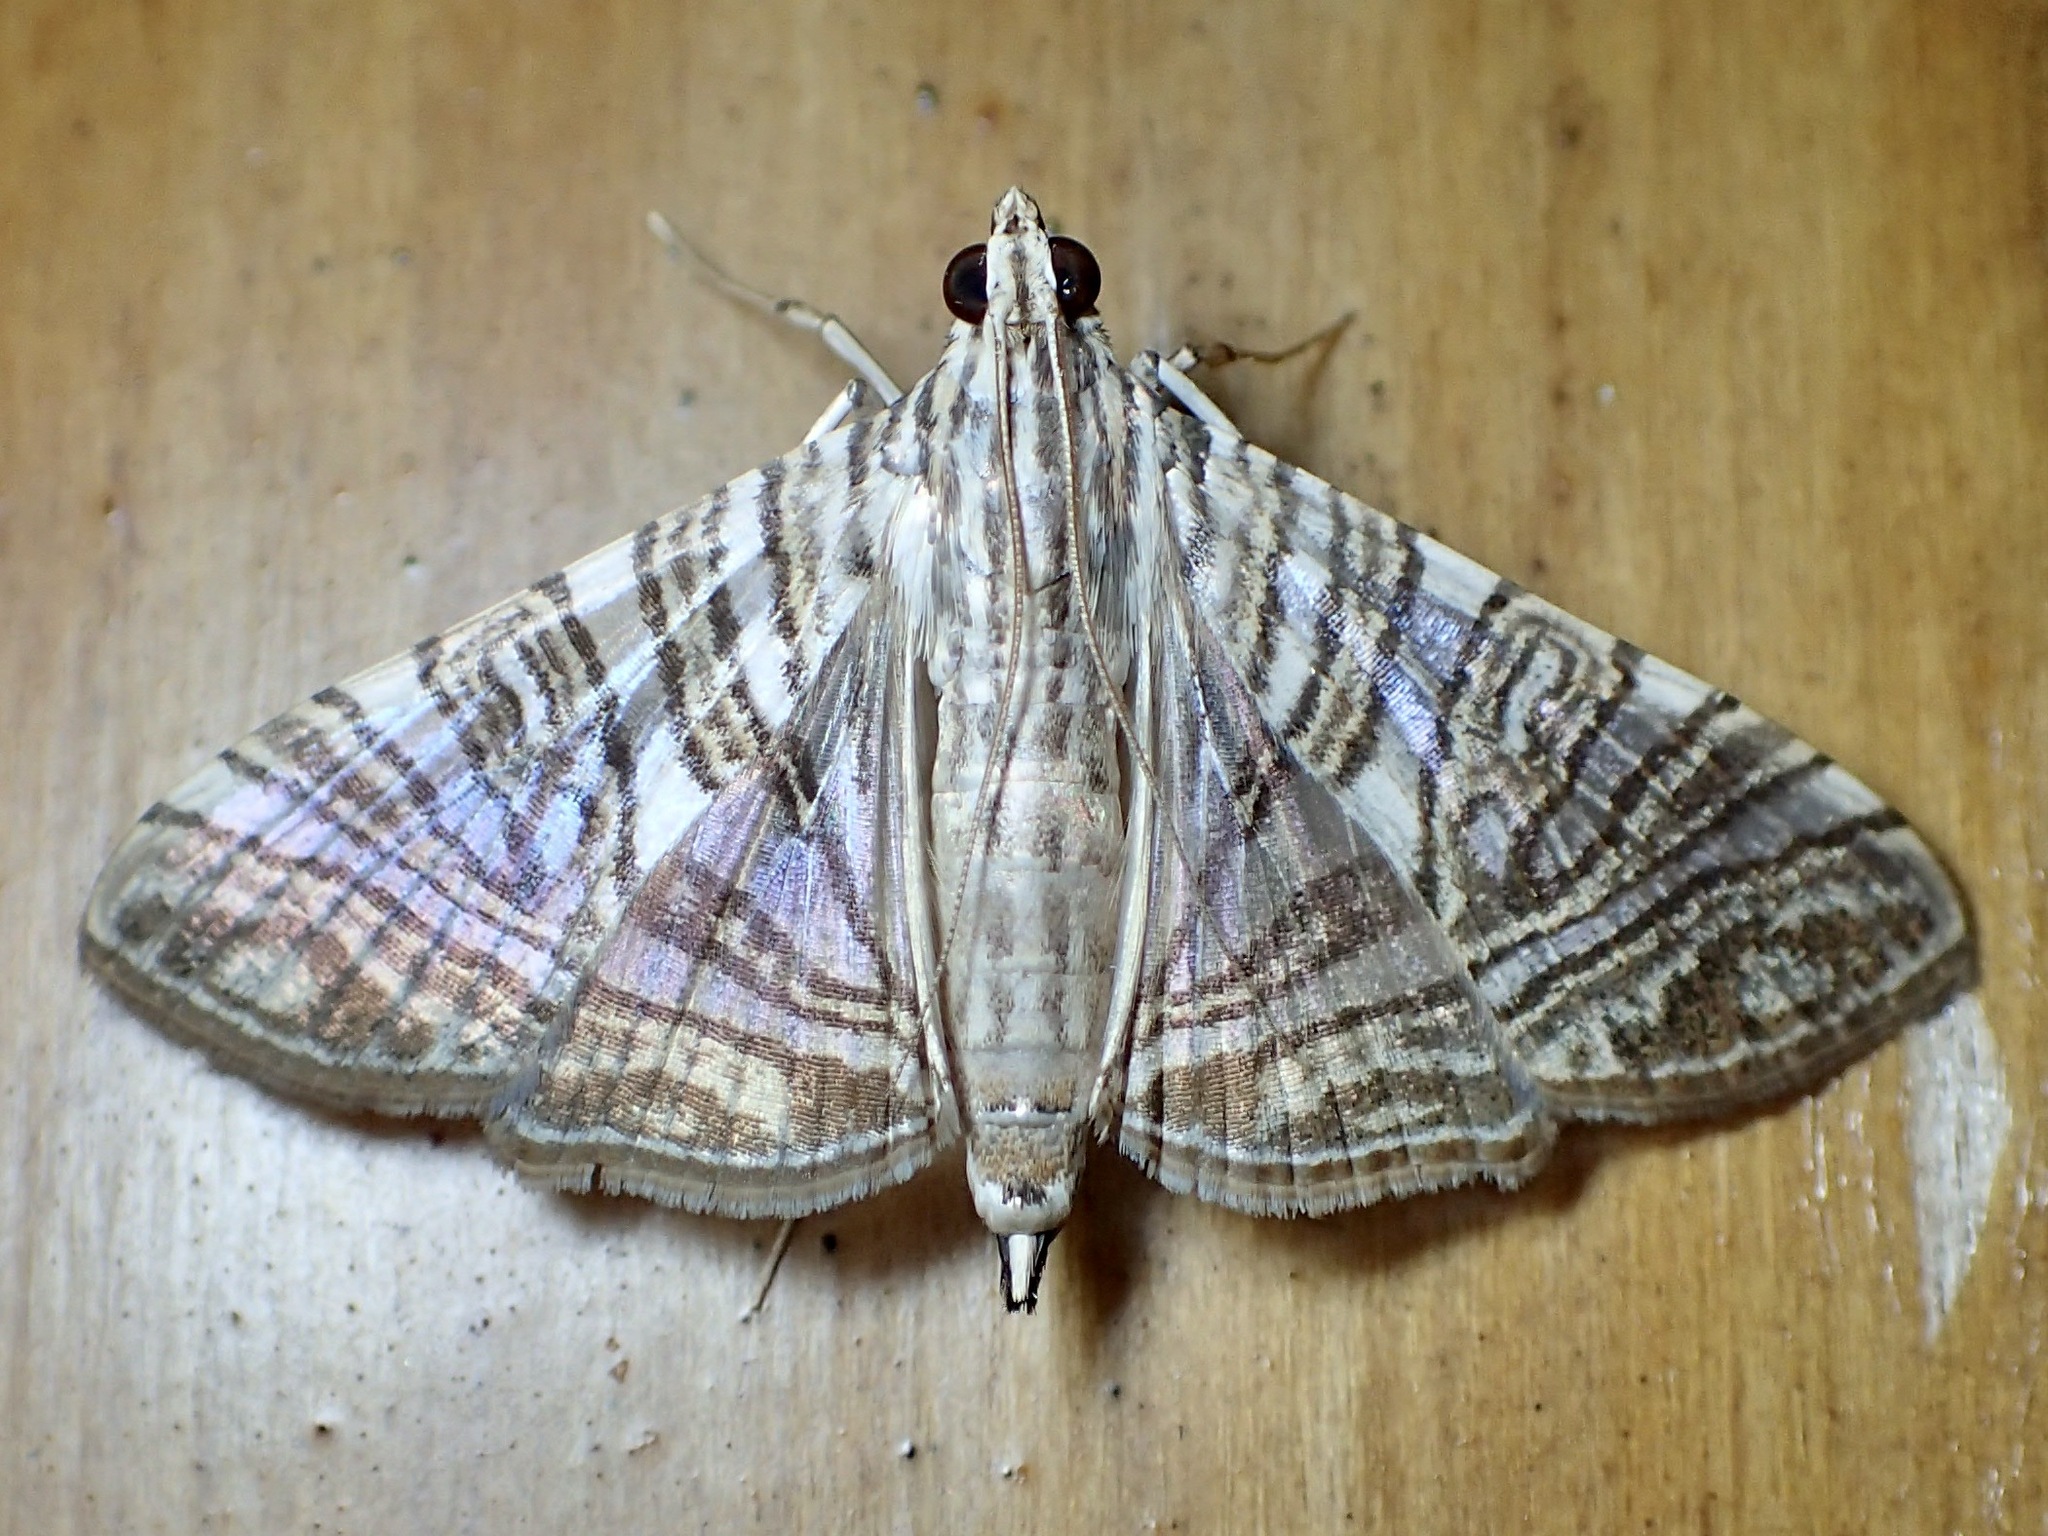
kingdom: Animalia
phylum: Arthropoda
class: Insecta
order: Lepidoptera
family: Crambidae
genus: Glyphodes
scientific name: Glyphodes multilinealis
